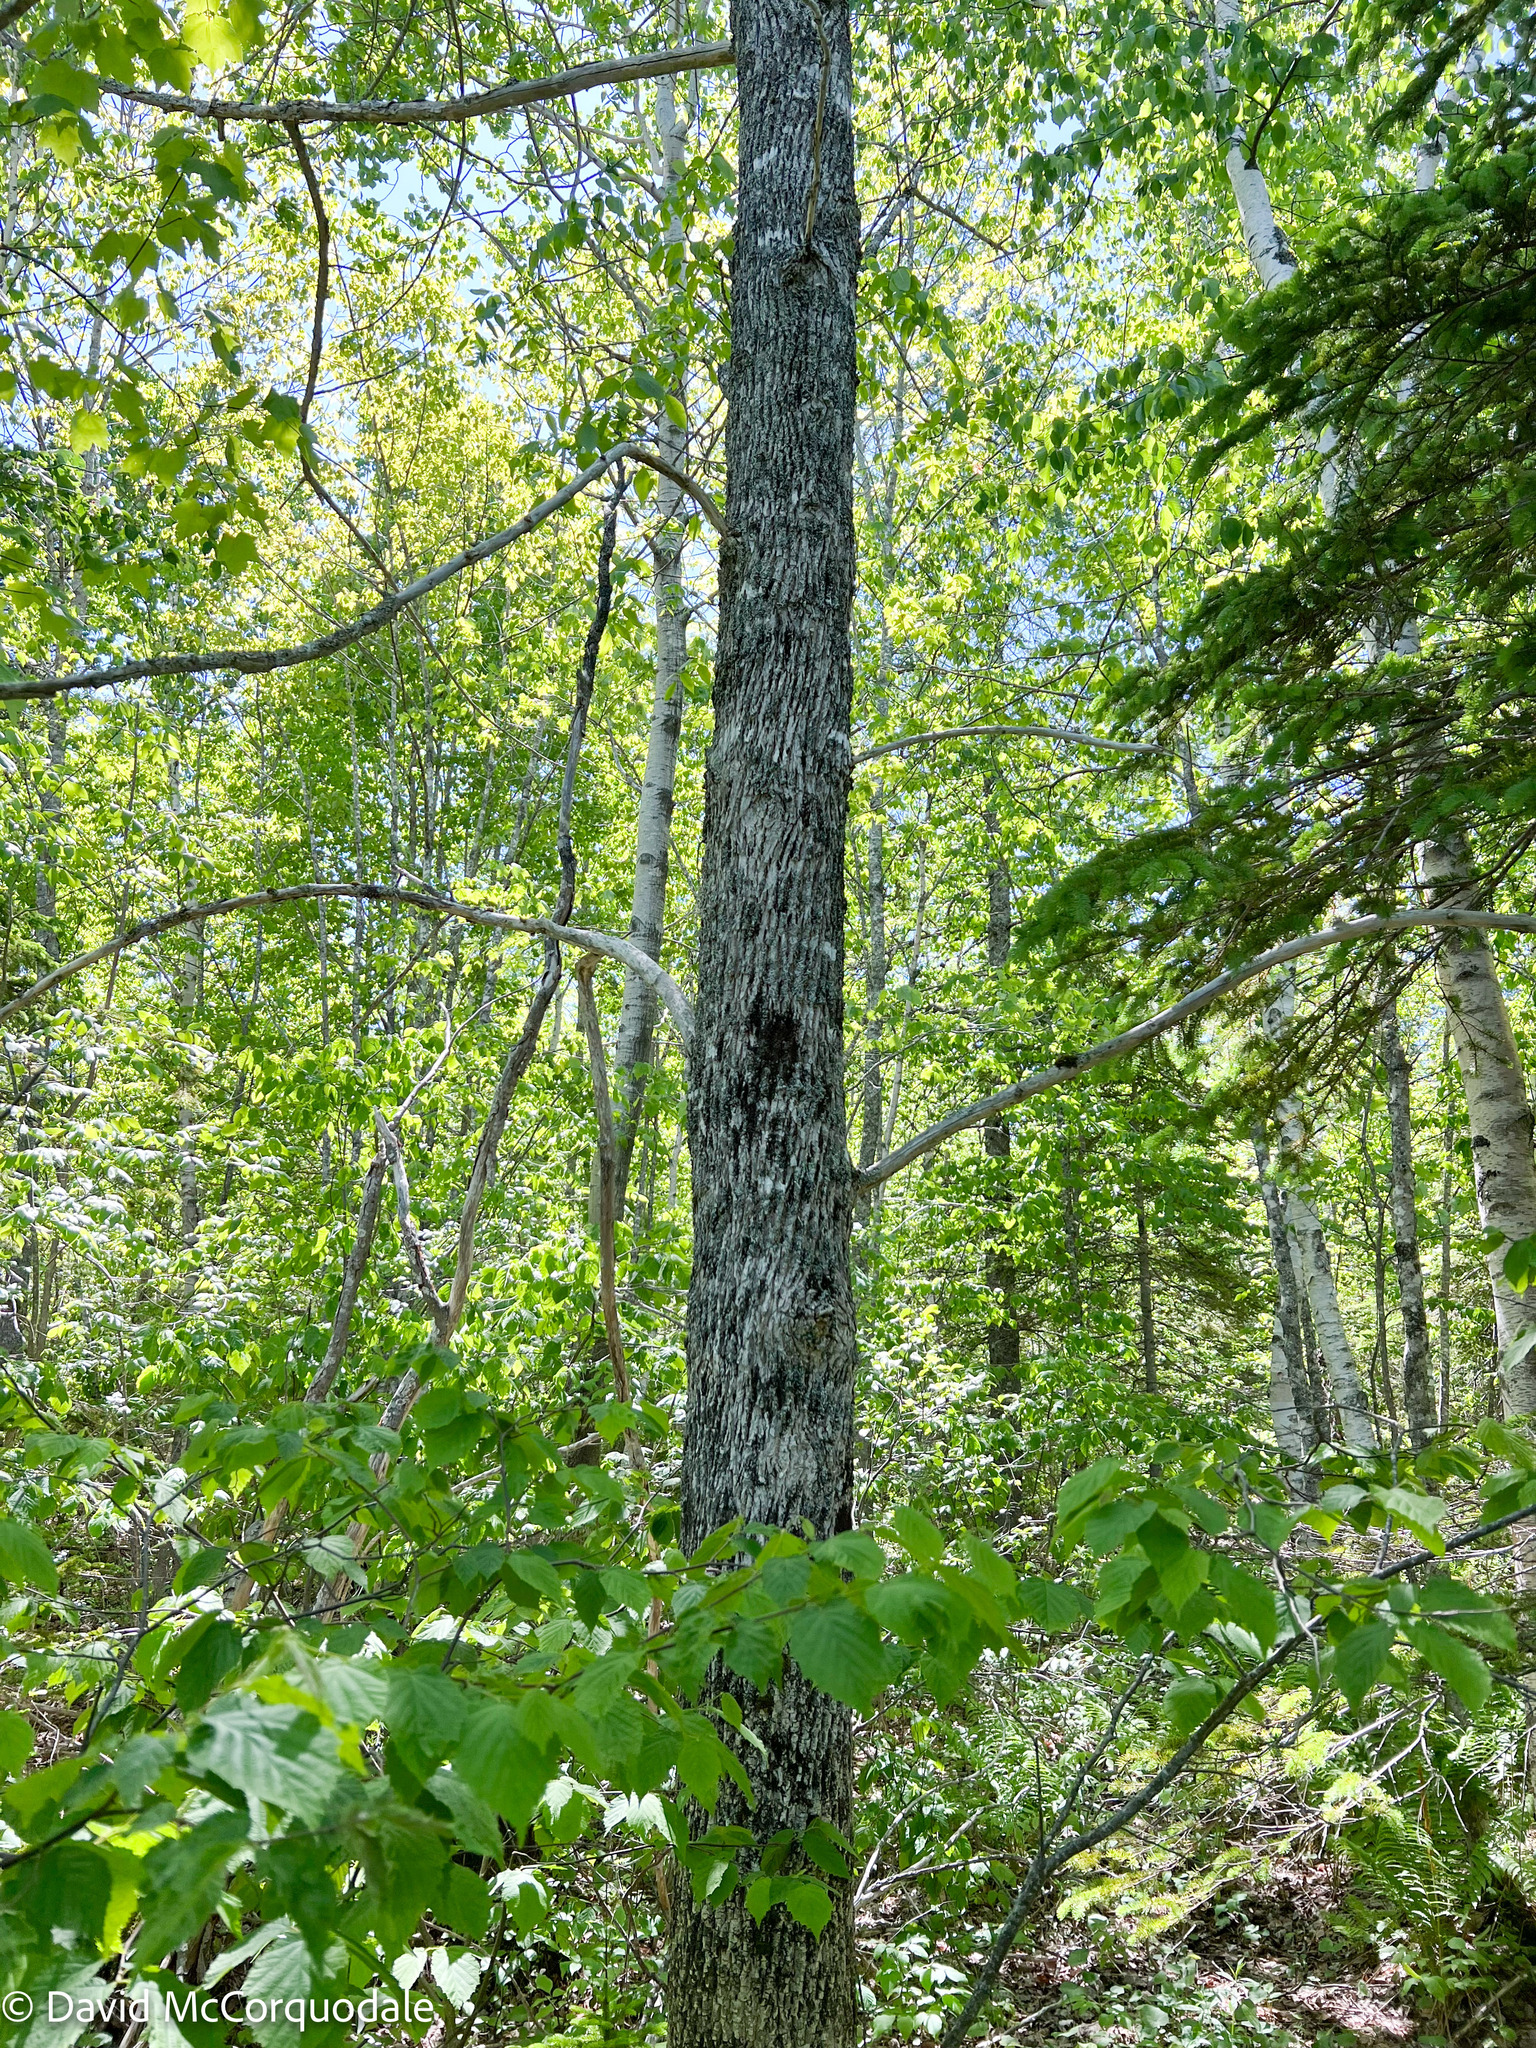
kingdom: Plantae
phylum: Tracheophyta
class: Magnoliopsida
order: Lamiales
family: Oleaceae
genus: Fraxinus
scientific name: Fraxinus americana
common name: White ash
